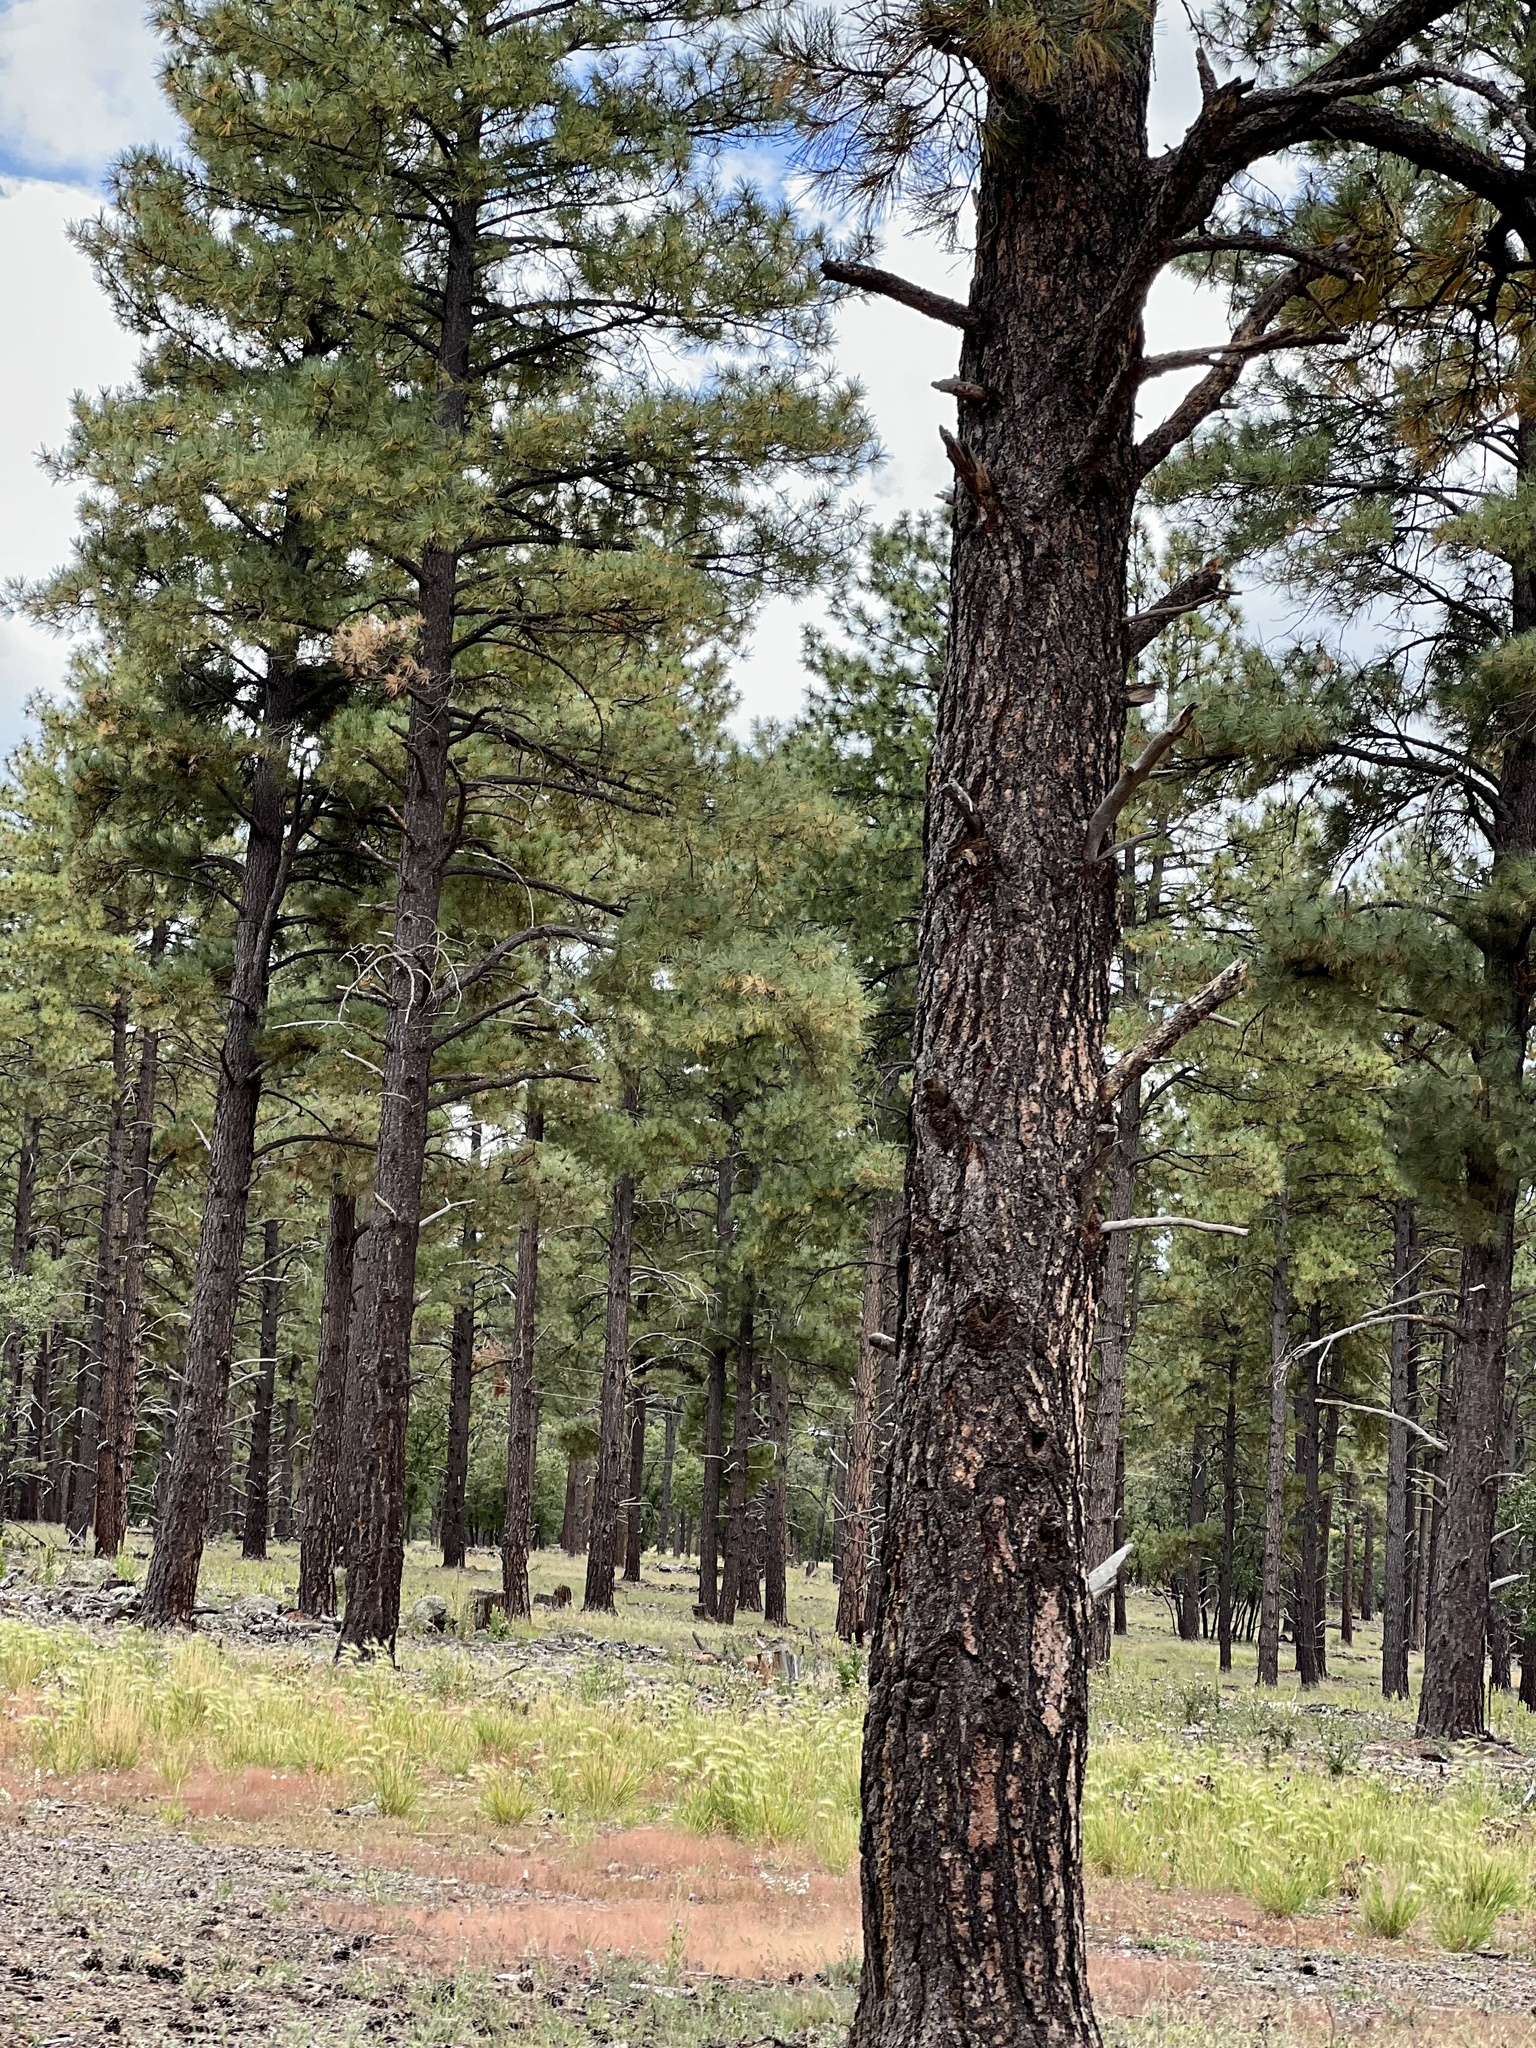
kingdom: Plantae
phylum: Tracheophyta
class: Pinopsida
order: Pinales
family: Pinaceae
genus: Pinus
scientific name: Pinus ponderosa
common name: Western yellow-pine
